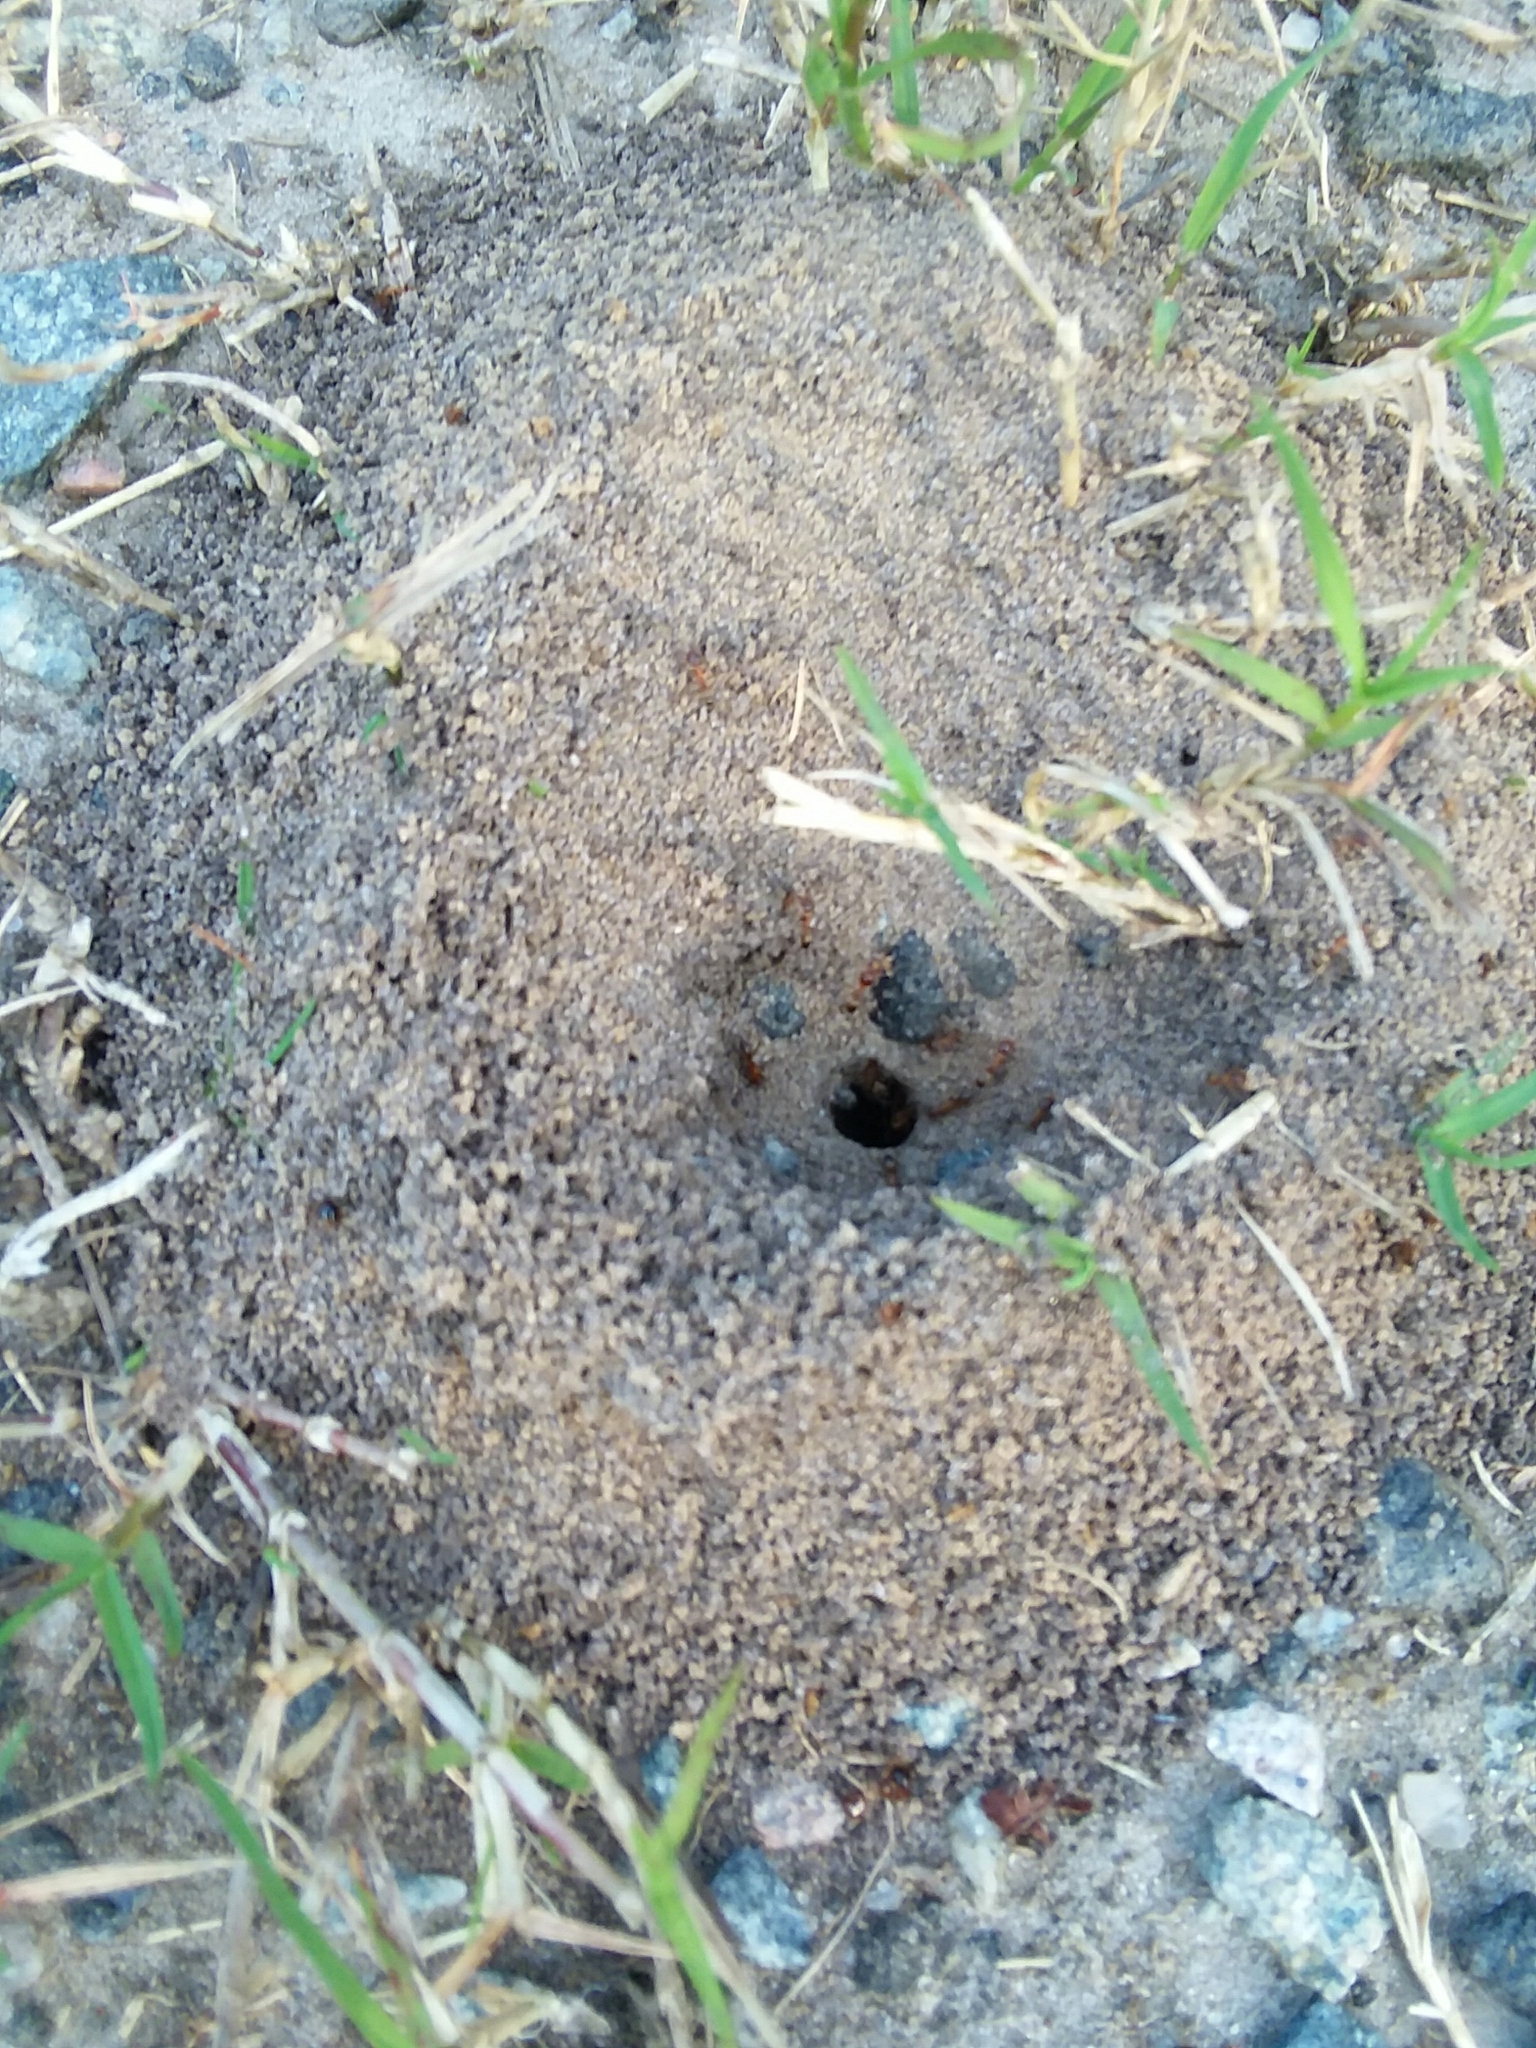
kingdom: Animalia
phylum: Arthropoda
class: Insecta
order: Hymenoptera
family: Formicidae
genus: Dorymyrmex
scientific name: Dorymyrmex bureni
